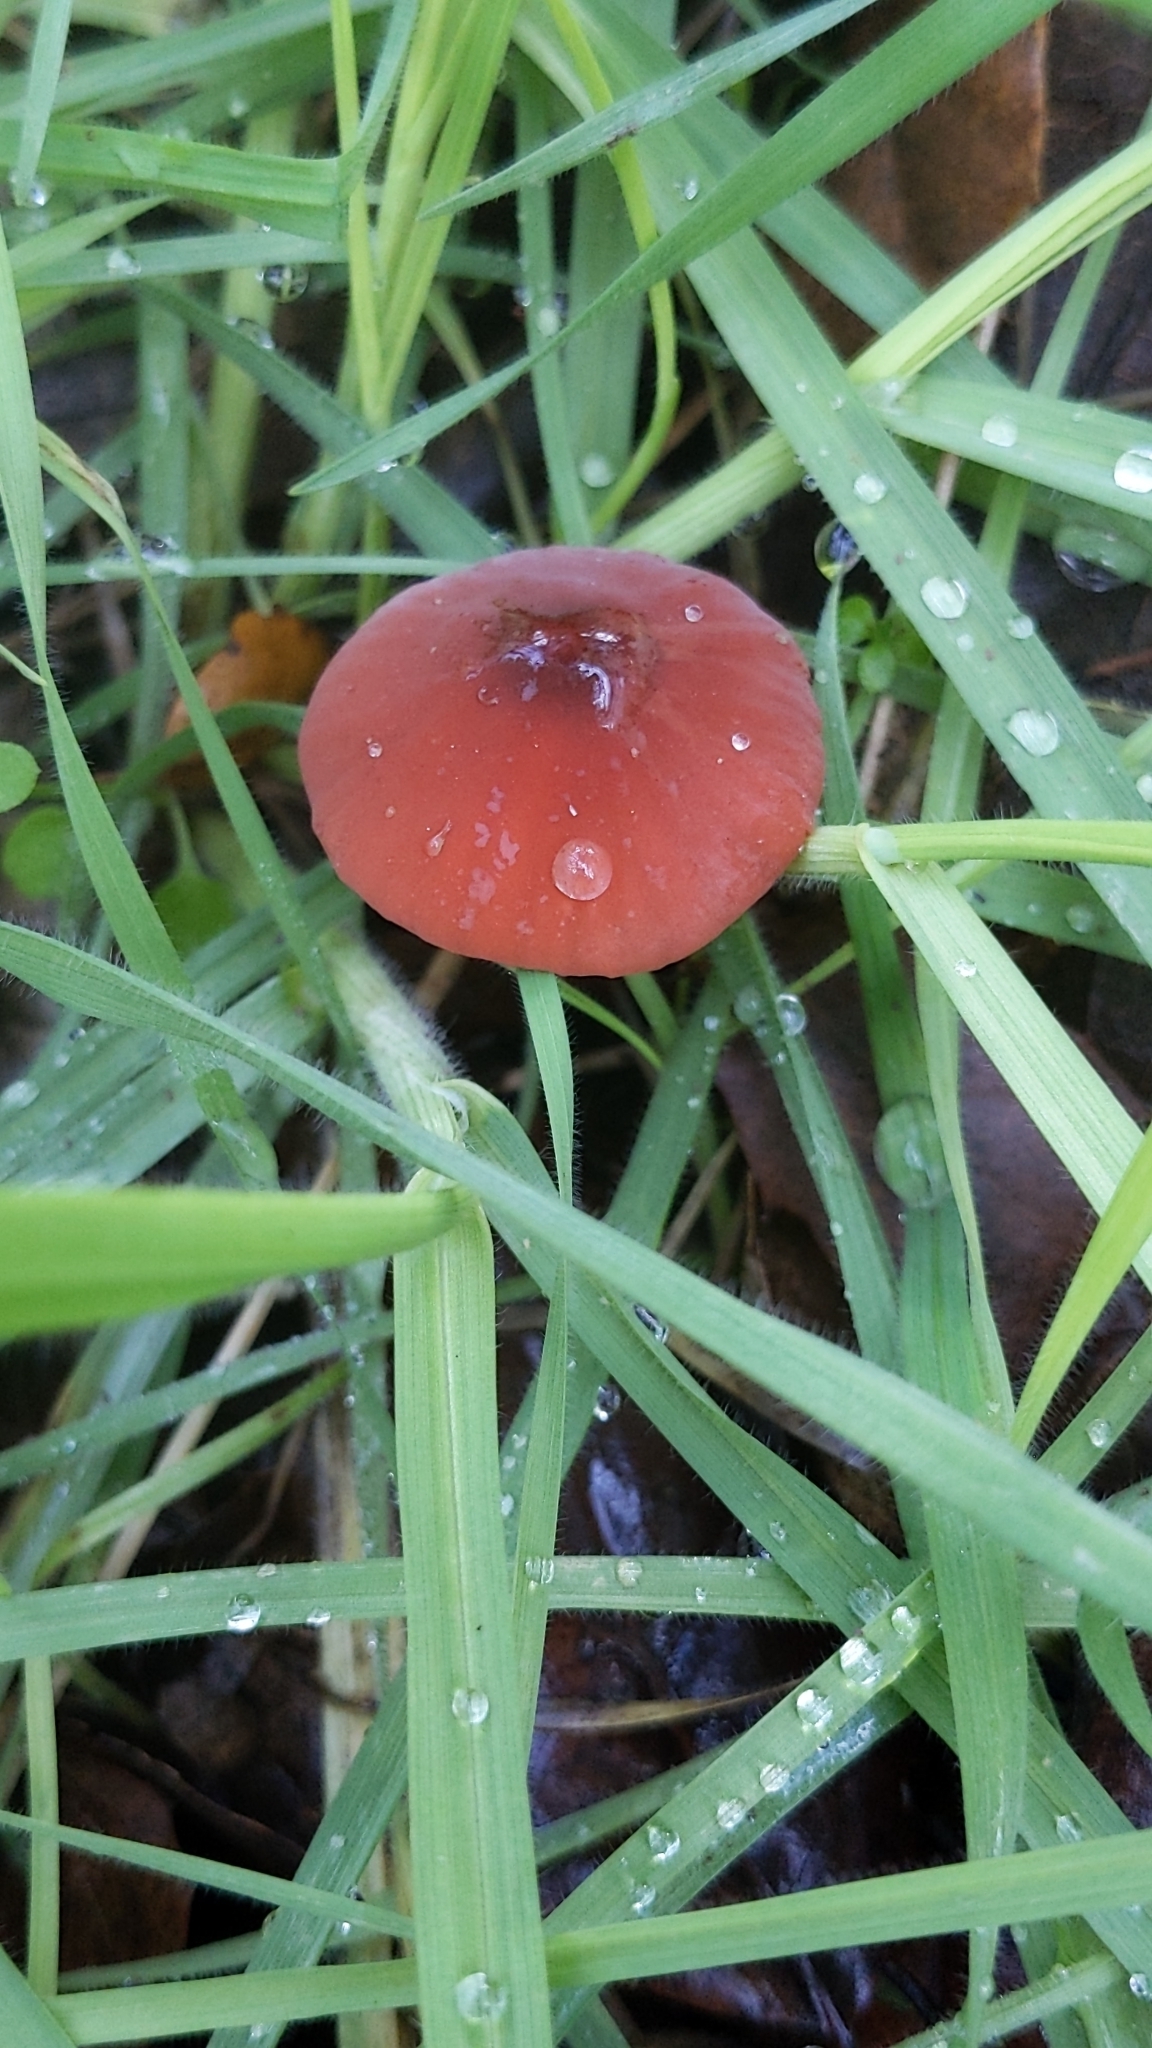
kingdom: Fungi
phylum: Basidiomycota
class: Agaricomycetes
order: Agaricales
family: Marasmiaceae
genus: Marasmius
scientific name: Marasmius plicatulus
